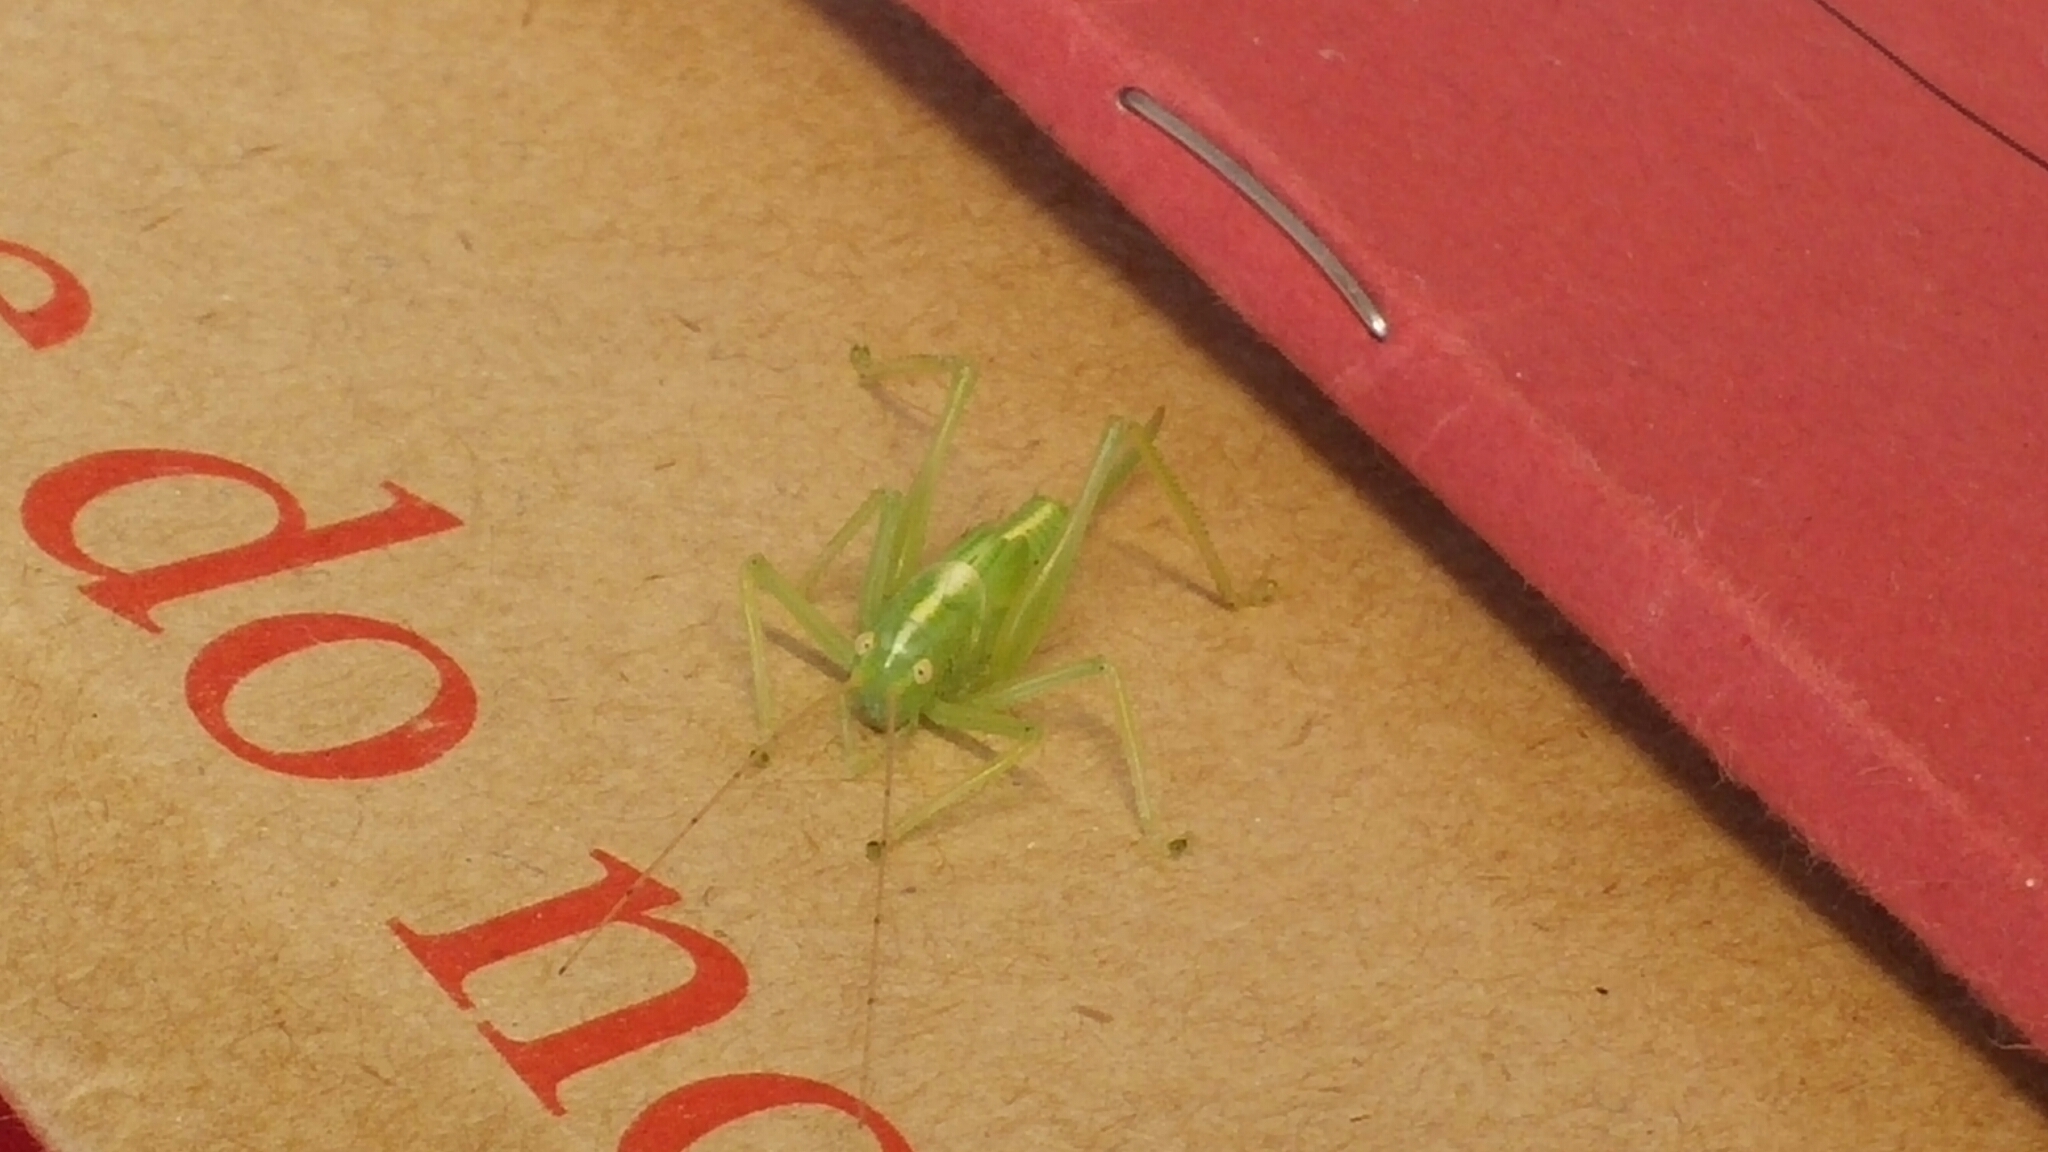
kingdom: Animalia
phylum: Arthropoda
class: Insecta
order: Orthoptera
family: Tettigoniidae
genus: Meconema
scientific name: Meconema thalassinum
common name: Oak bush-cricket
